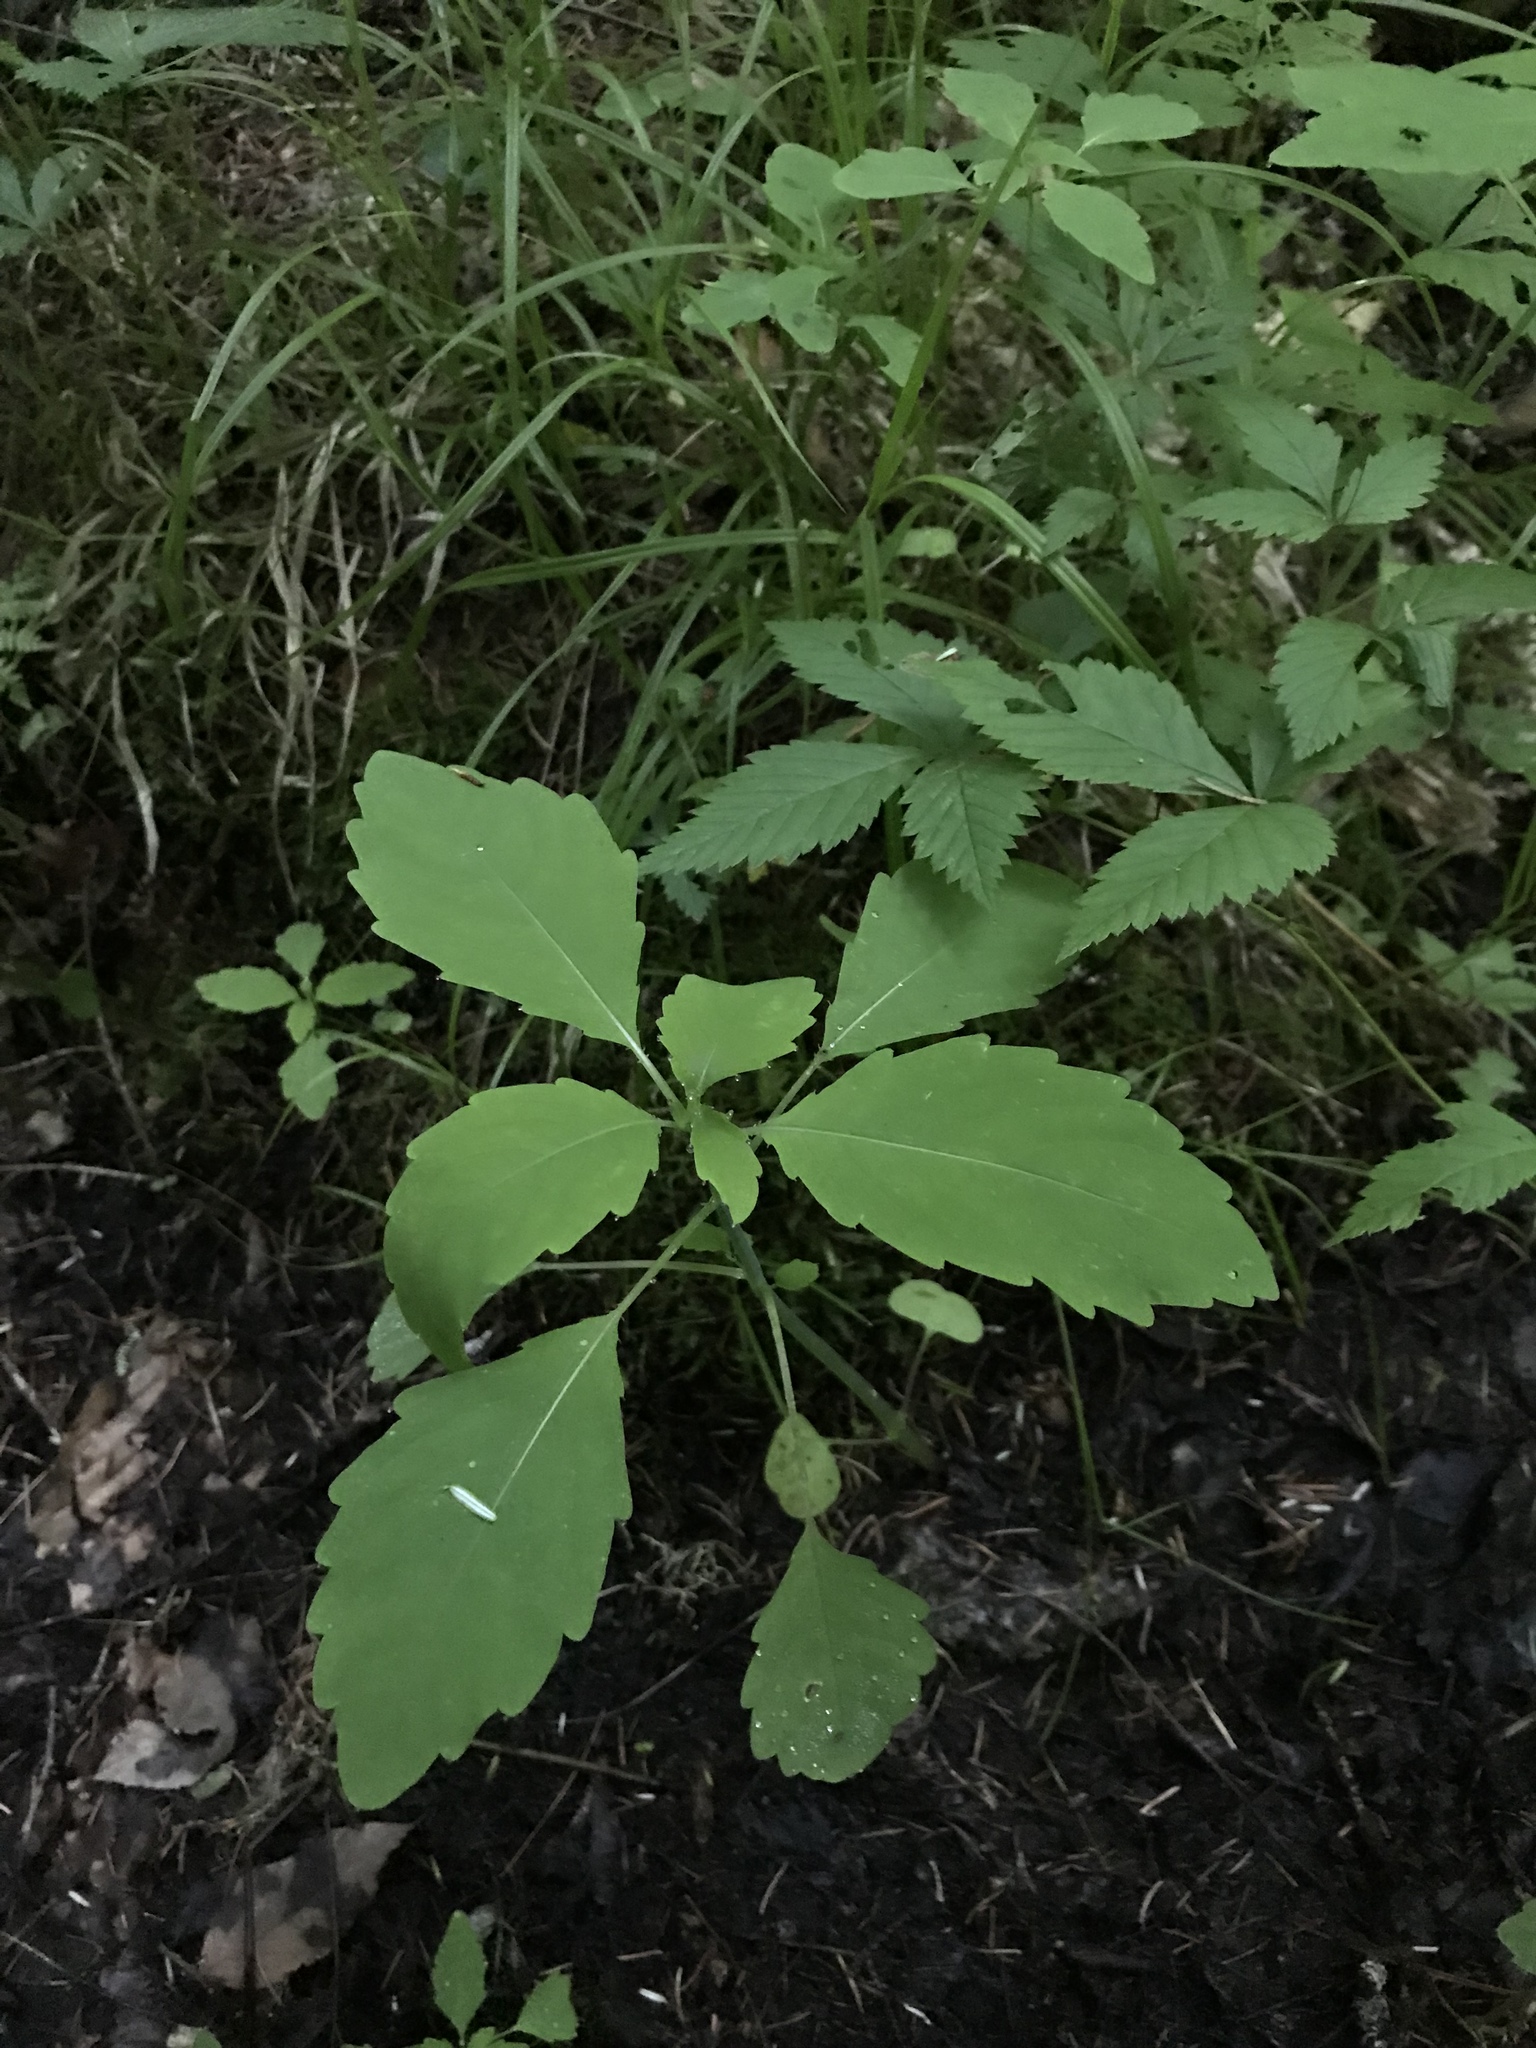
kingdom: Plantae
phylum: Tracheophyta
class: Magnoliopsida
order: Ericales
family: Balsaminaceae
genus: Impatiens
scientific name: Impatiens capensis
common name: Orange balsam
